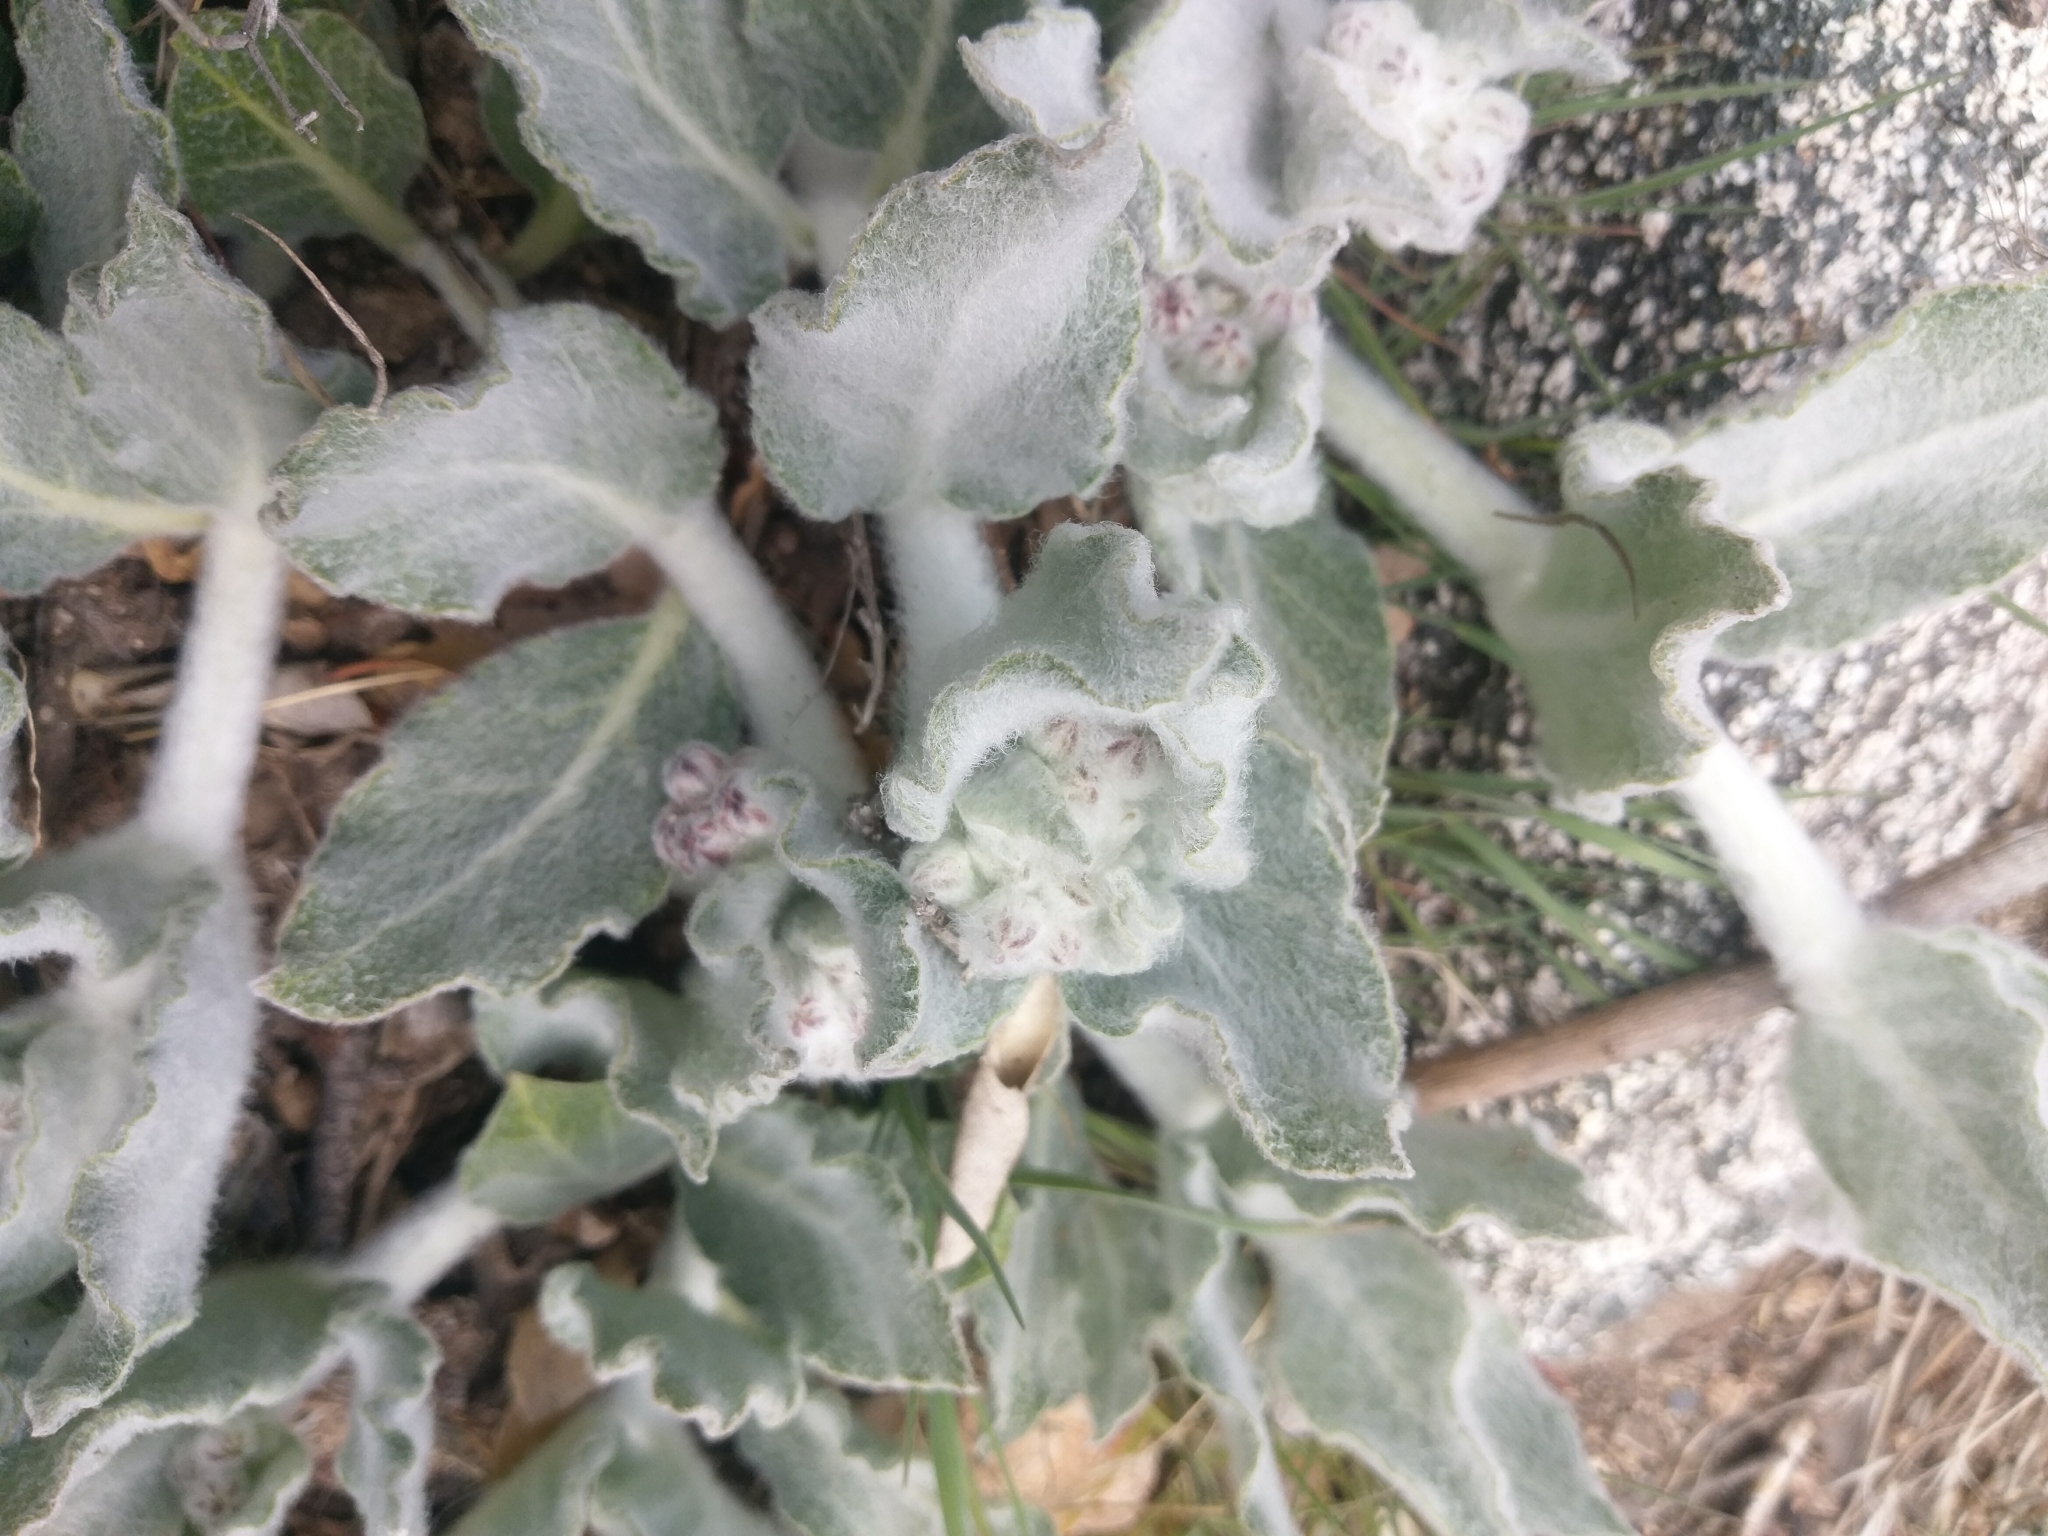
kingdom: Plantae
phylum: Tracheophyta
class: Magnoliopsida
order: Gentianales
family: Apocynaceae
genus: Asclepias
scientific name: Asclepias californica
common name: California milkweed
